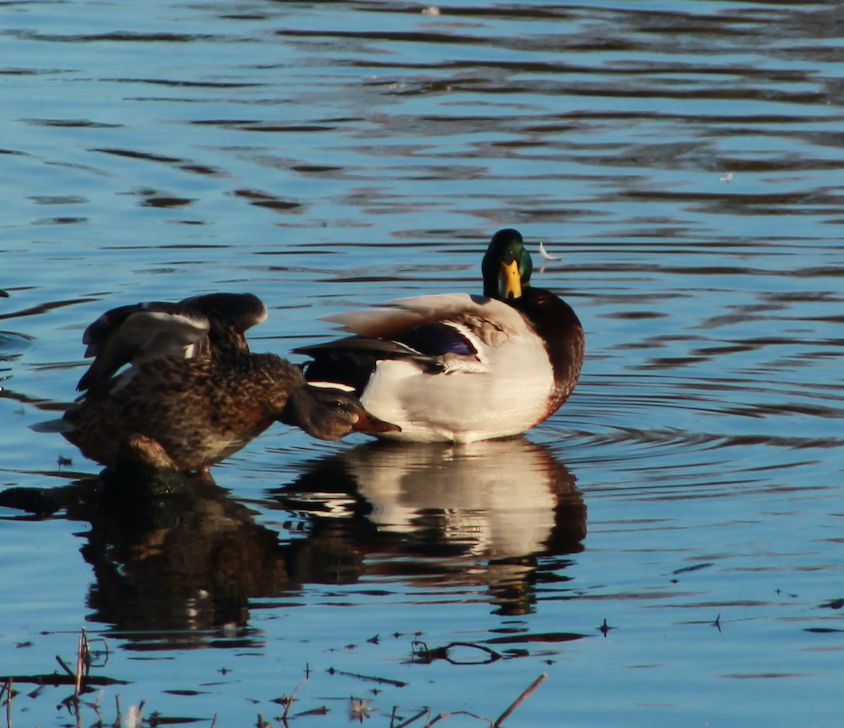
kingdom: Animalia
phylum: Chordata
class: Aves
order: Anseriformes
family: Anatidae
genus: Anas
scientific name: Anas platyrhynchos
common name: Mallard
